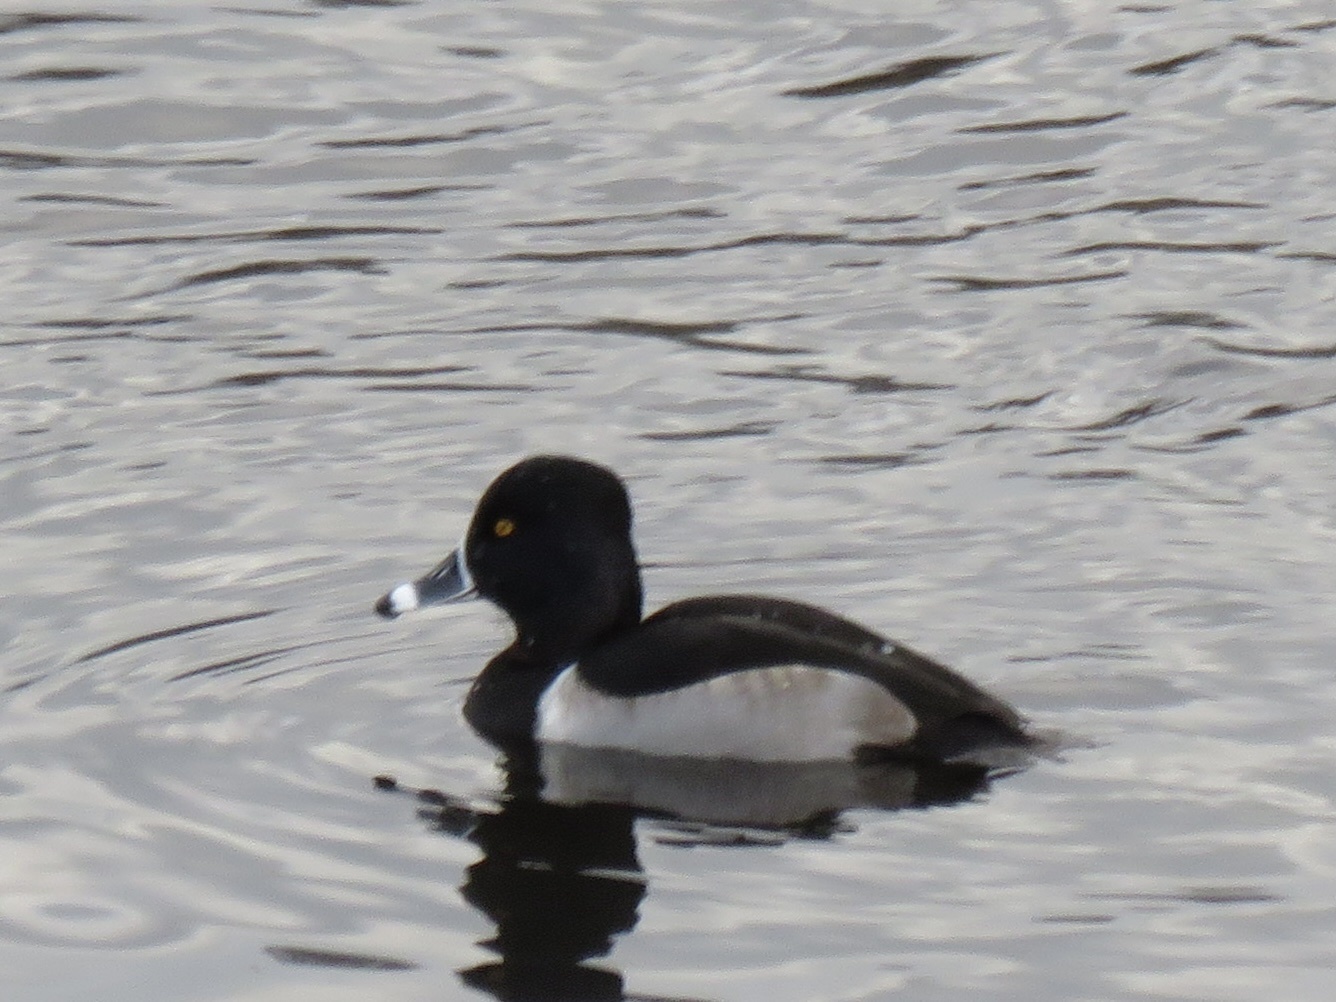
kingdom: Animalia
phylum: Chordata
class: Aves
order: Anseriformes
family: Anatidae
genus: Aythya
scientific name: Aythya collaris
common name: Ring-necked duck
